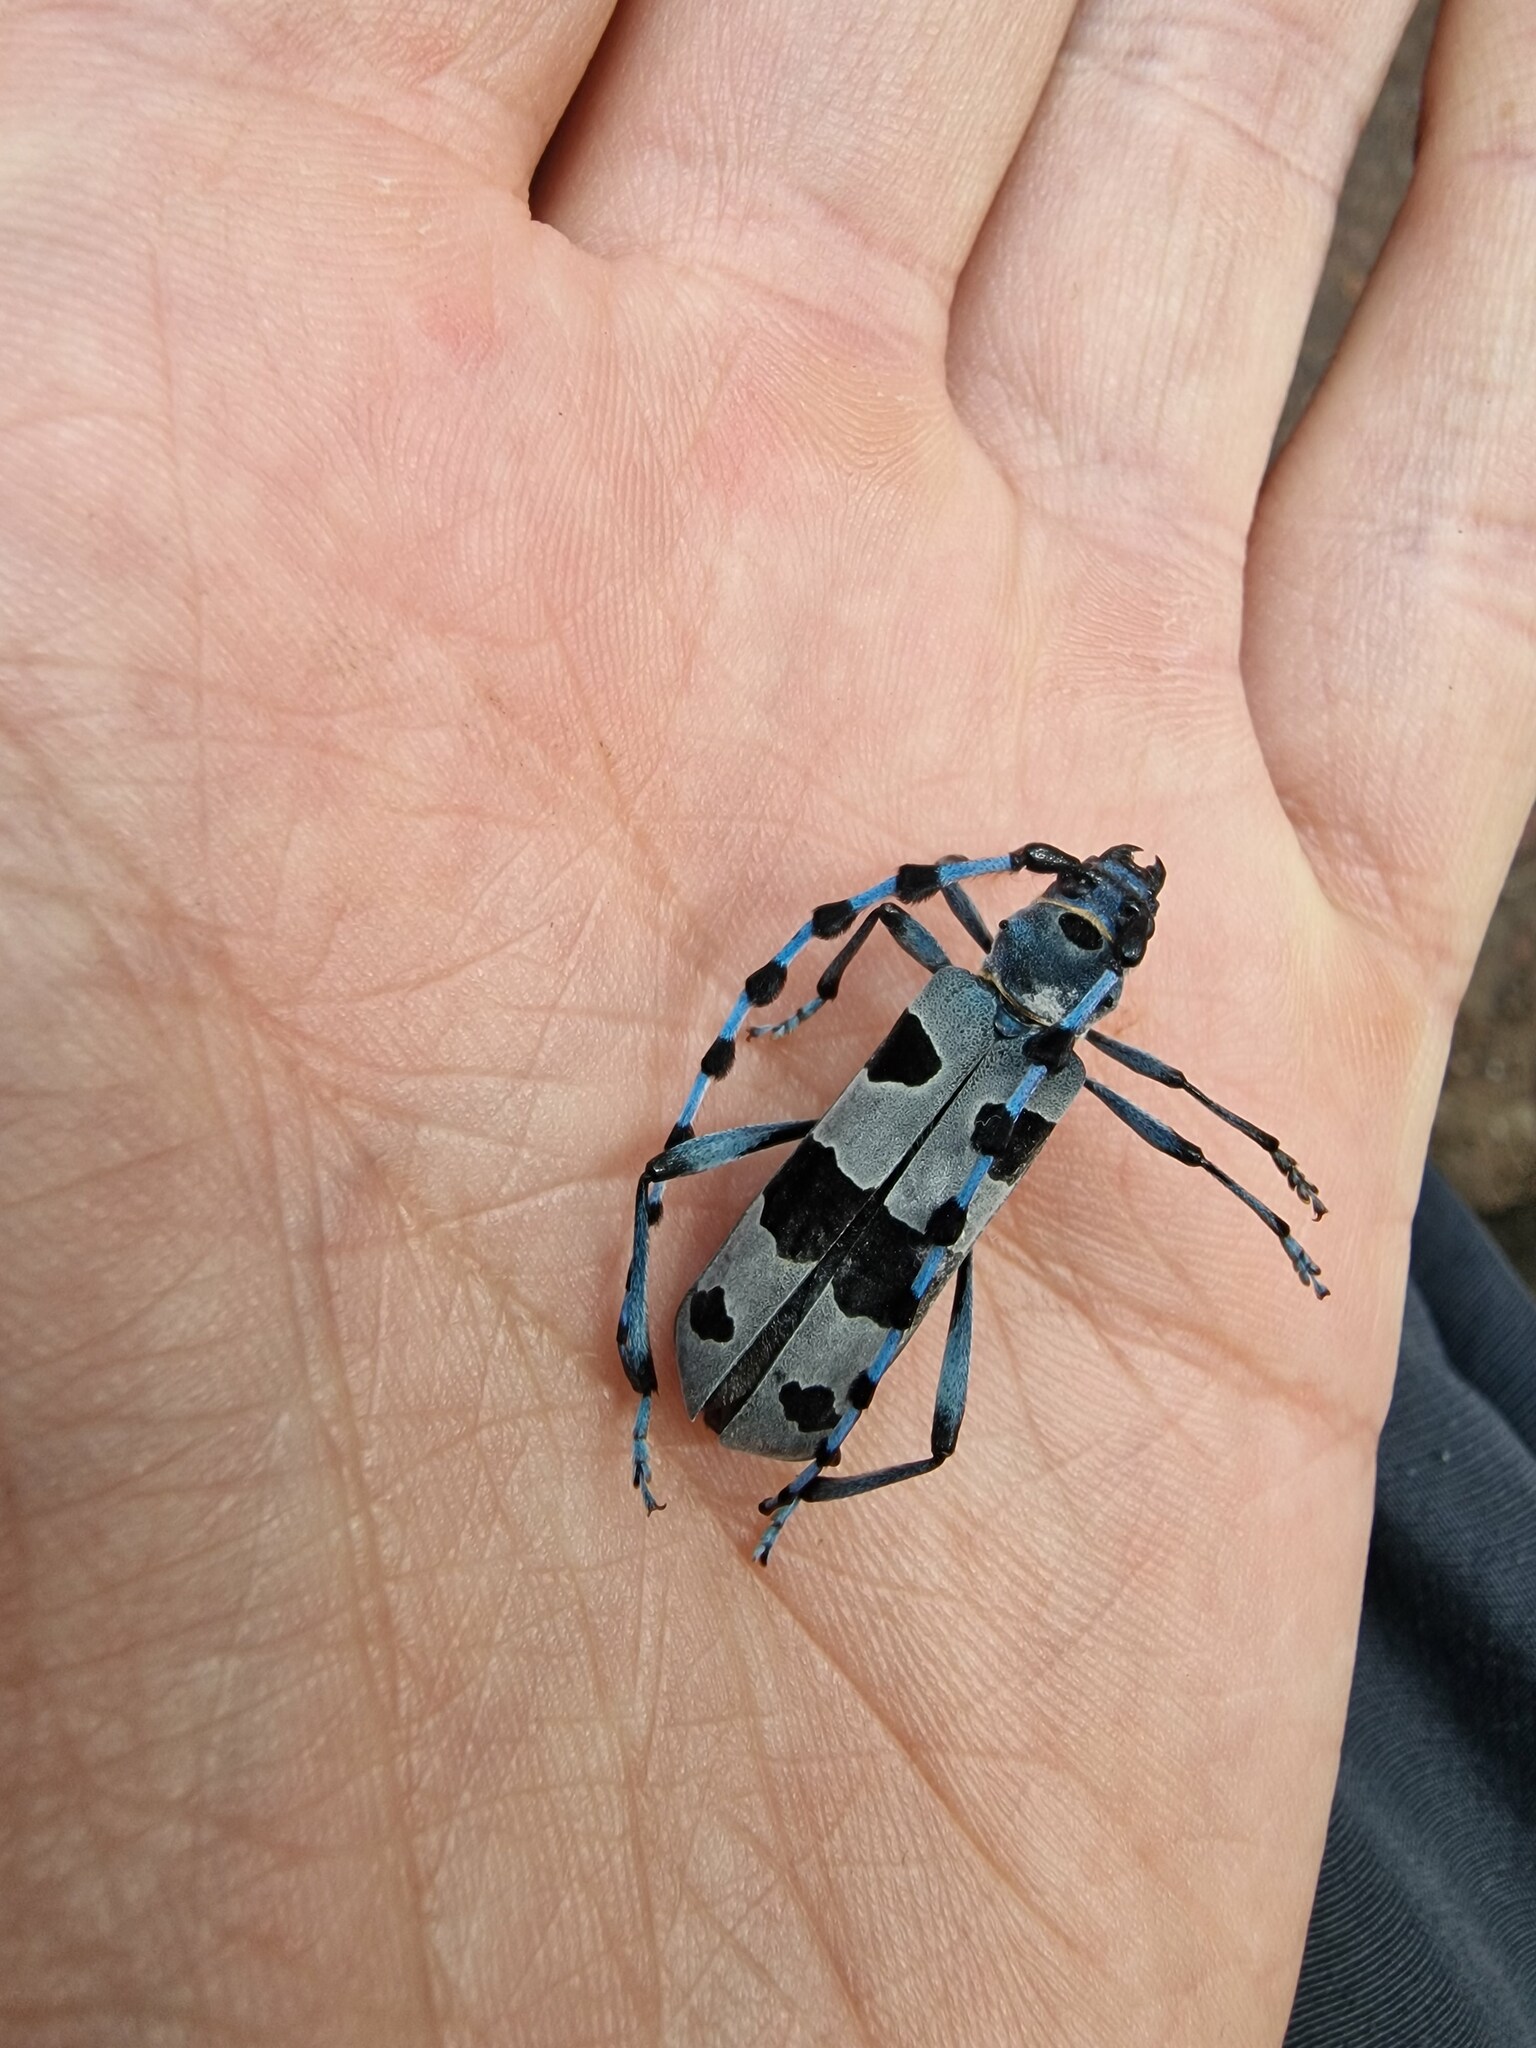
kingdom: Animalia
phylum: Arthropoda
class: Insecta
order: Coleoptera
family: Cerambycidae
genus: Rosalia
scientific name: Rosalia alpina
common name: Rosalia longicorn
